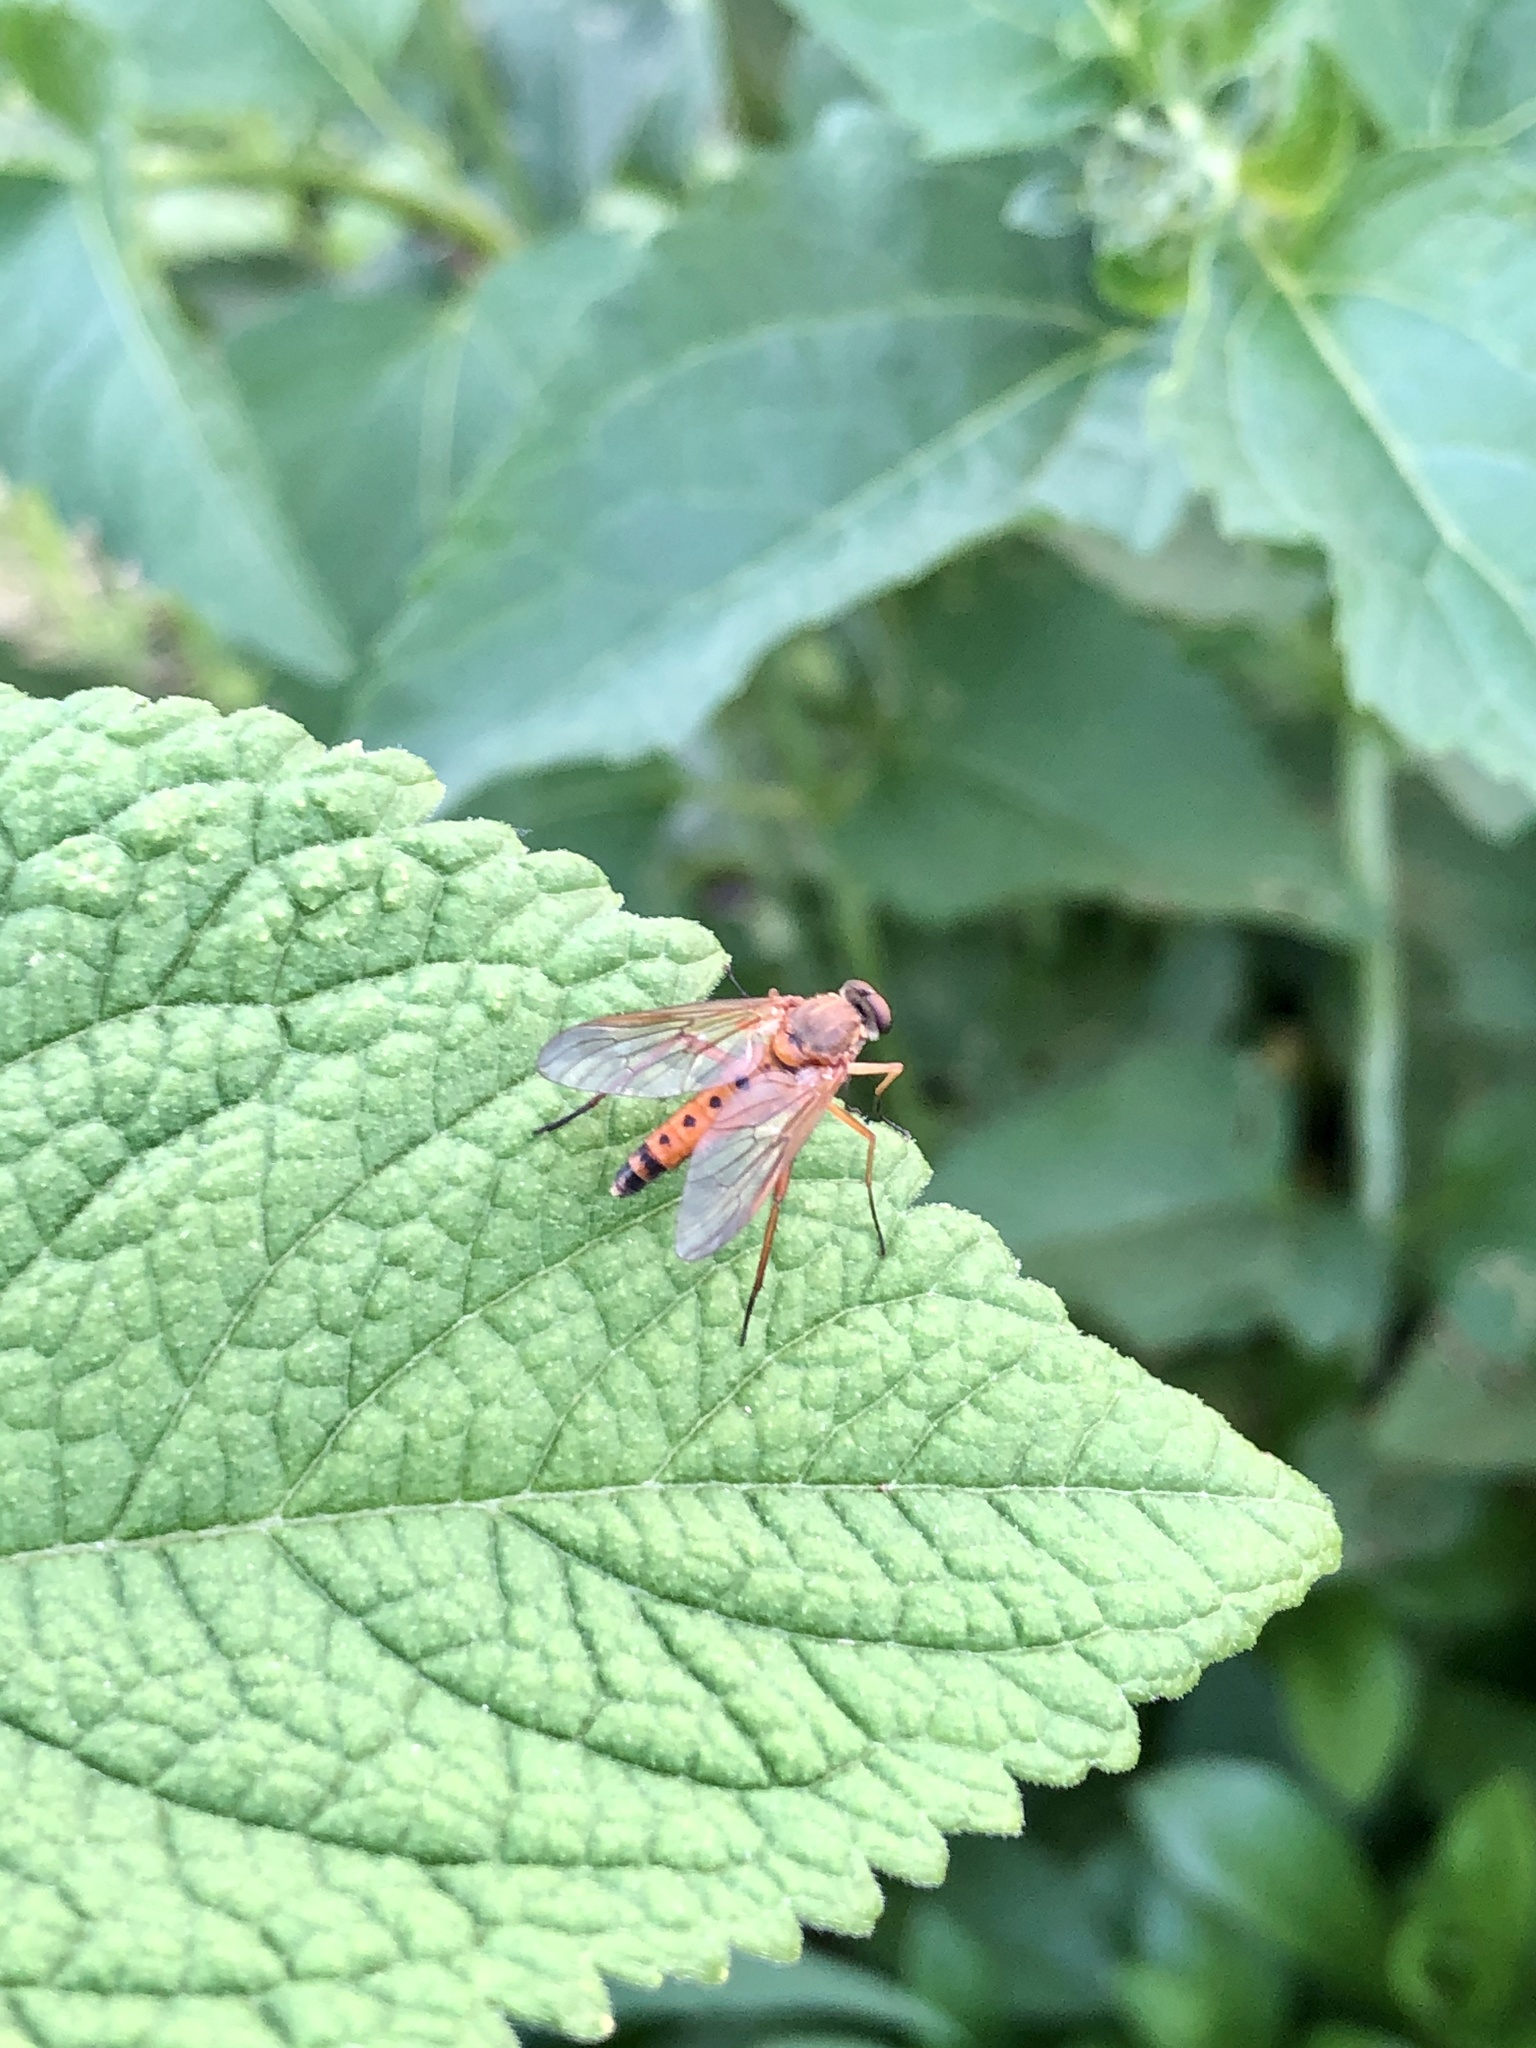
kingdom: Animalia
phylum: Arthropoda
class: Insecta
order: Diptera
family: Rhagionidae
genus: Rhagio
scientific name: Rhagio tringaria
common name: Marsh snipefly
